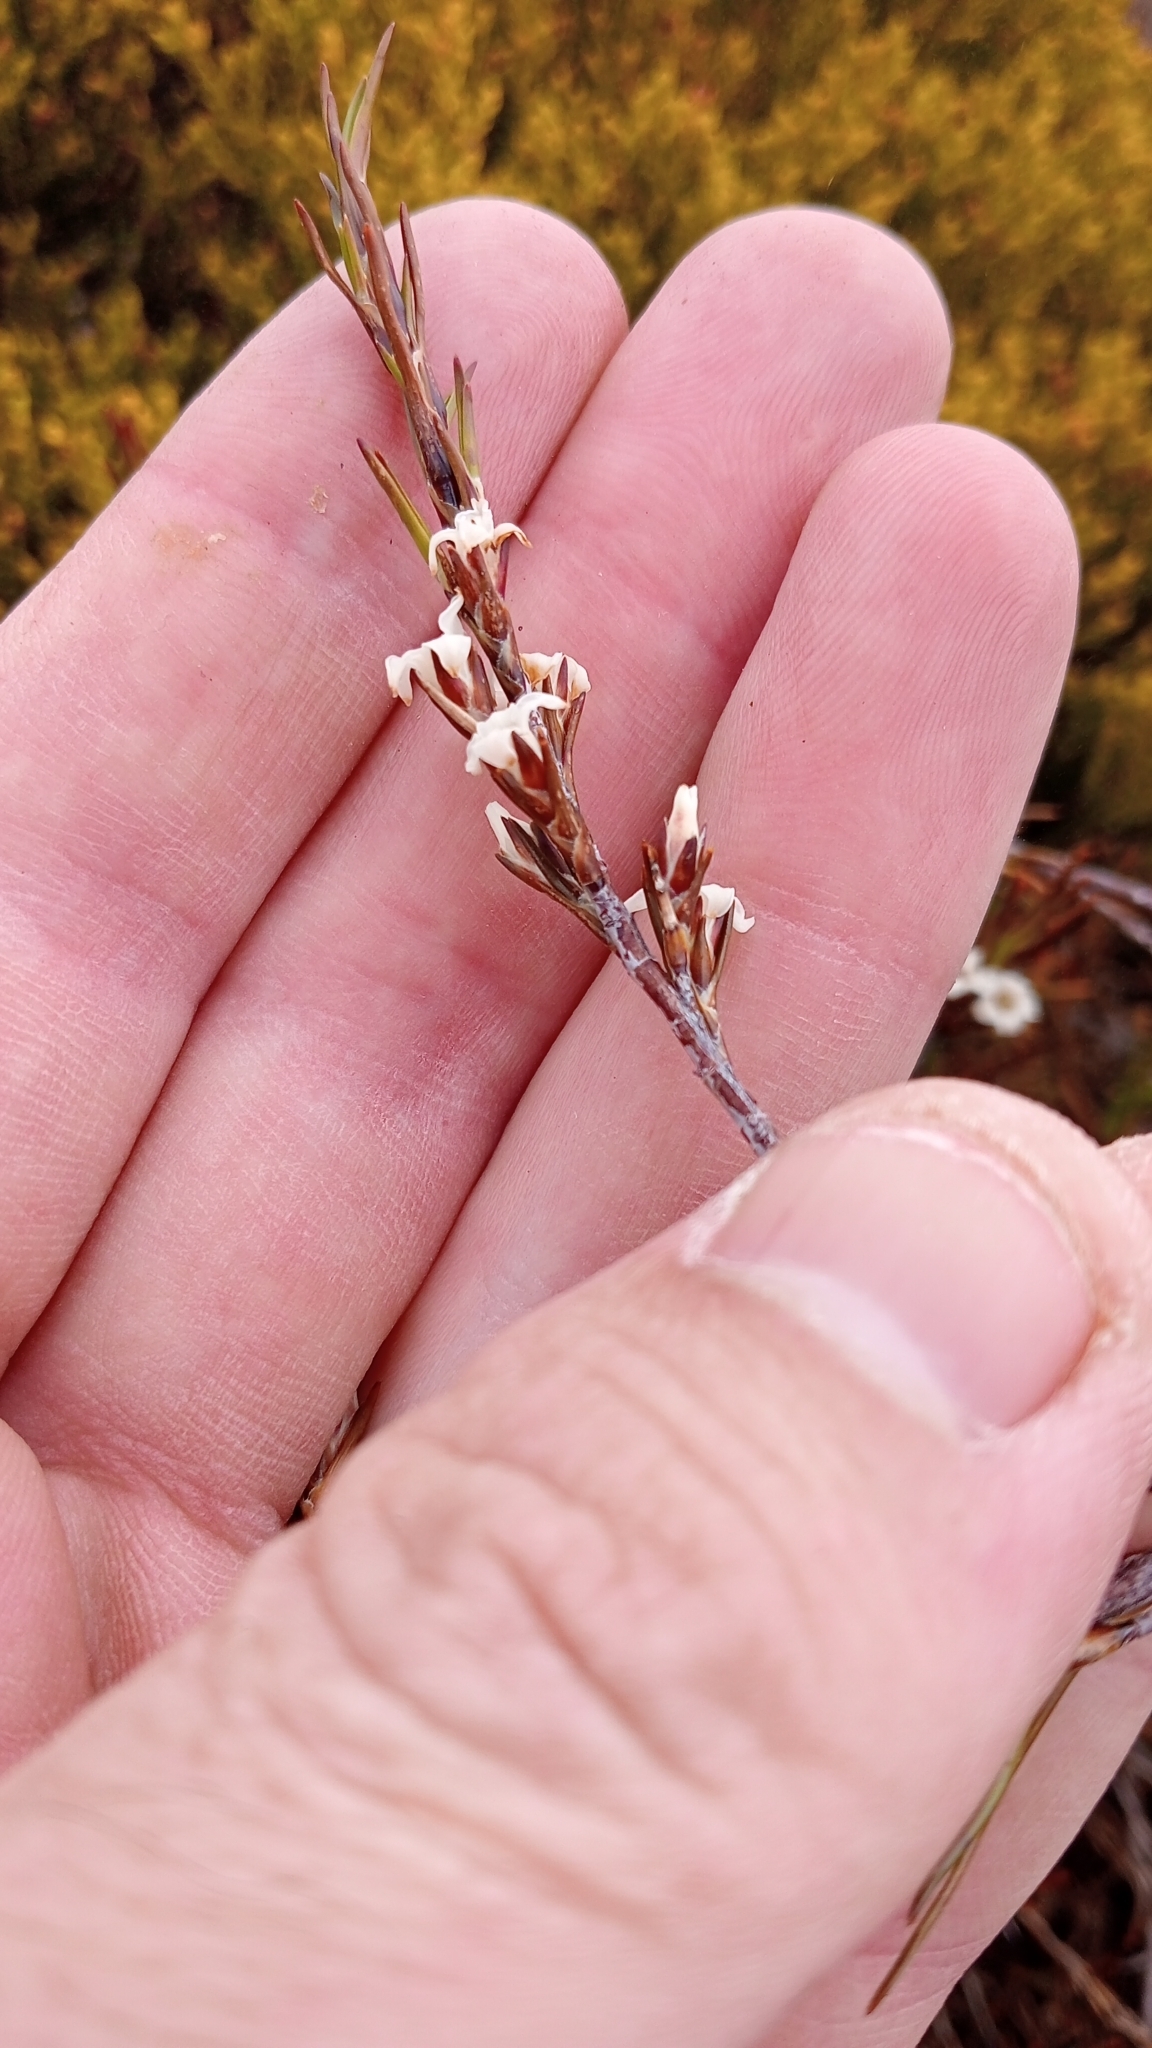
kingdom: Plantae
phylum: Tracheophyta
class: Magnoliopsida
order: Ericales
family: Ericaceae
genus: Dracophyllum
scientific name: Dracophyllum rosmarinifolium
